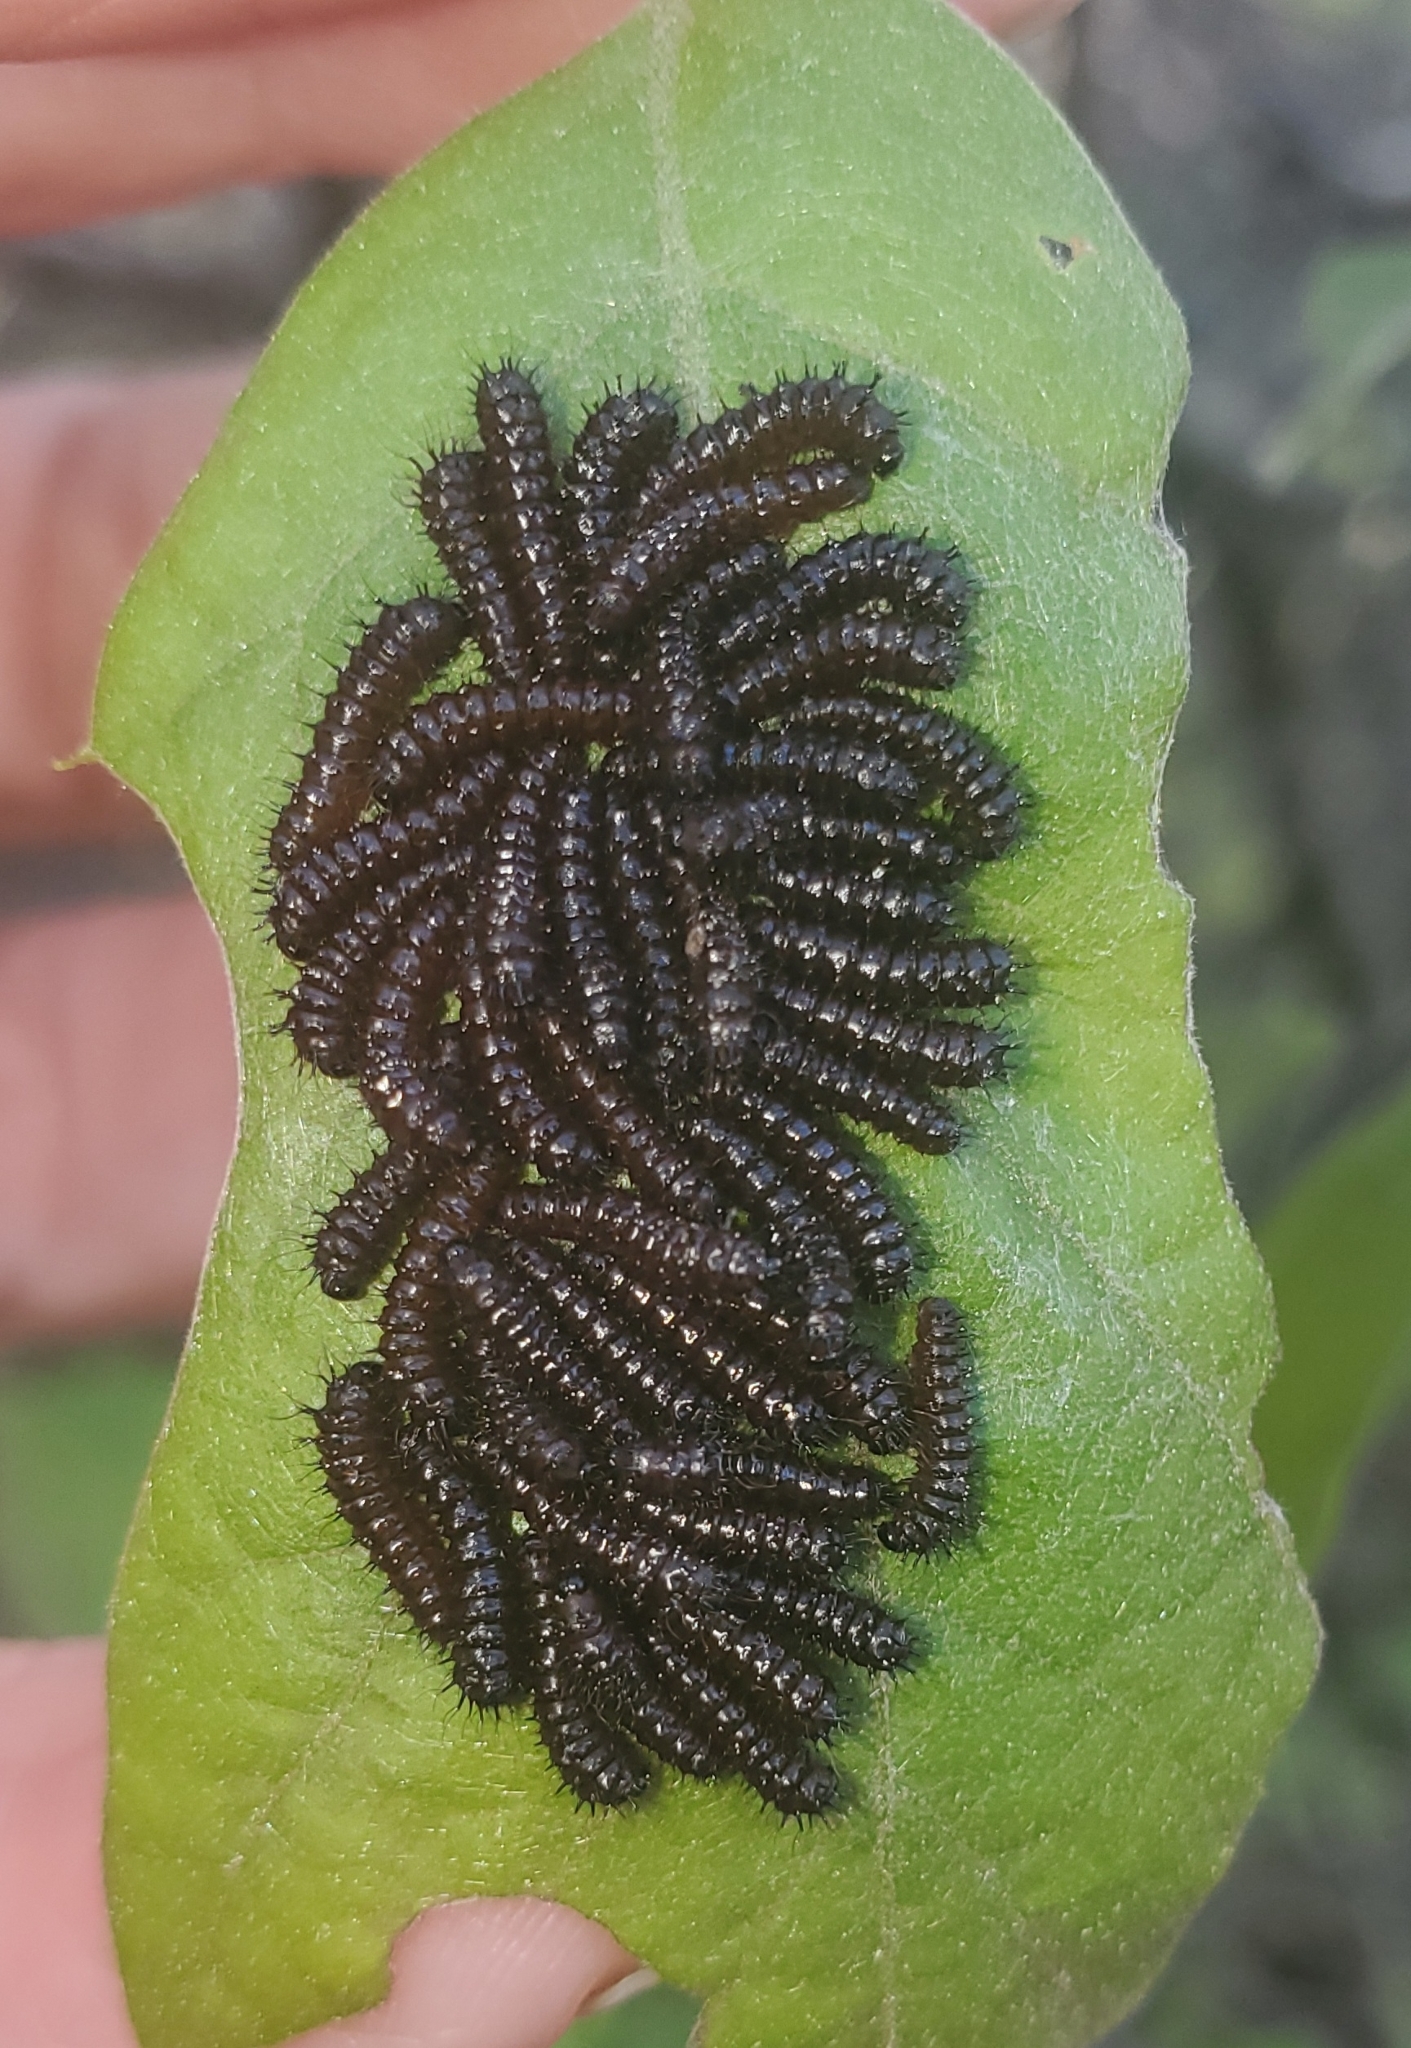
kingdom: Animalia
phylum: Arthropoda
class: Insecta
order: Lepidoptera
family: Saturniidae
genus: Hemileuca
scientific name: Hemileuca maia
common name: Eastern buckmoth
